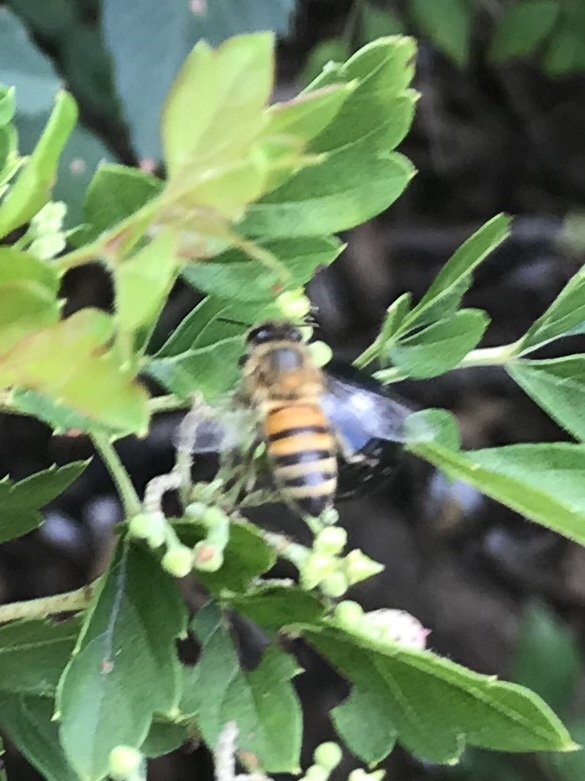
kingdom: Animalia
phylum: Arthropoda
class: Insecta
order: Hymenoptera
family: Apidae
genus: Apis
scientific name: Apis mellifera
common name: Honey bee
